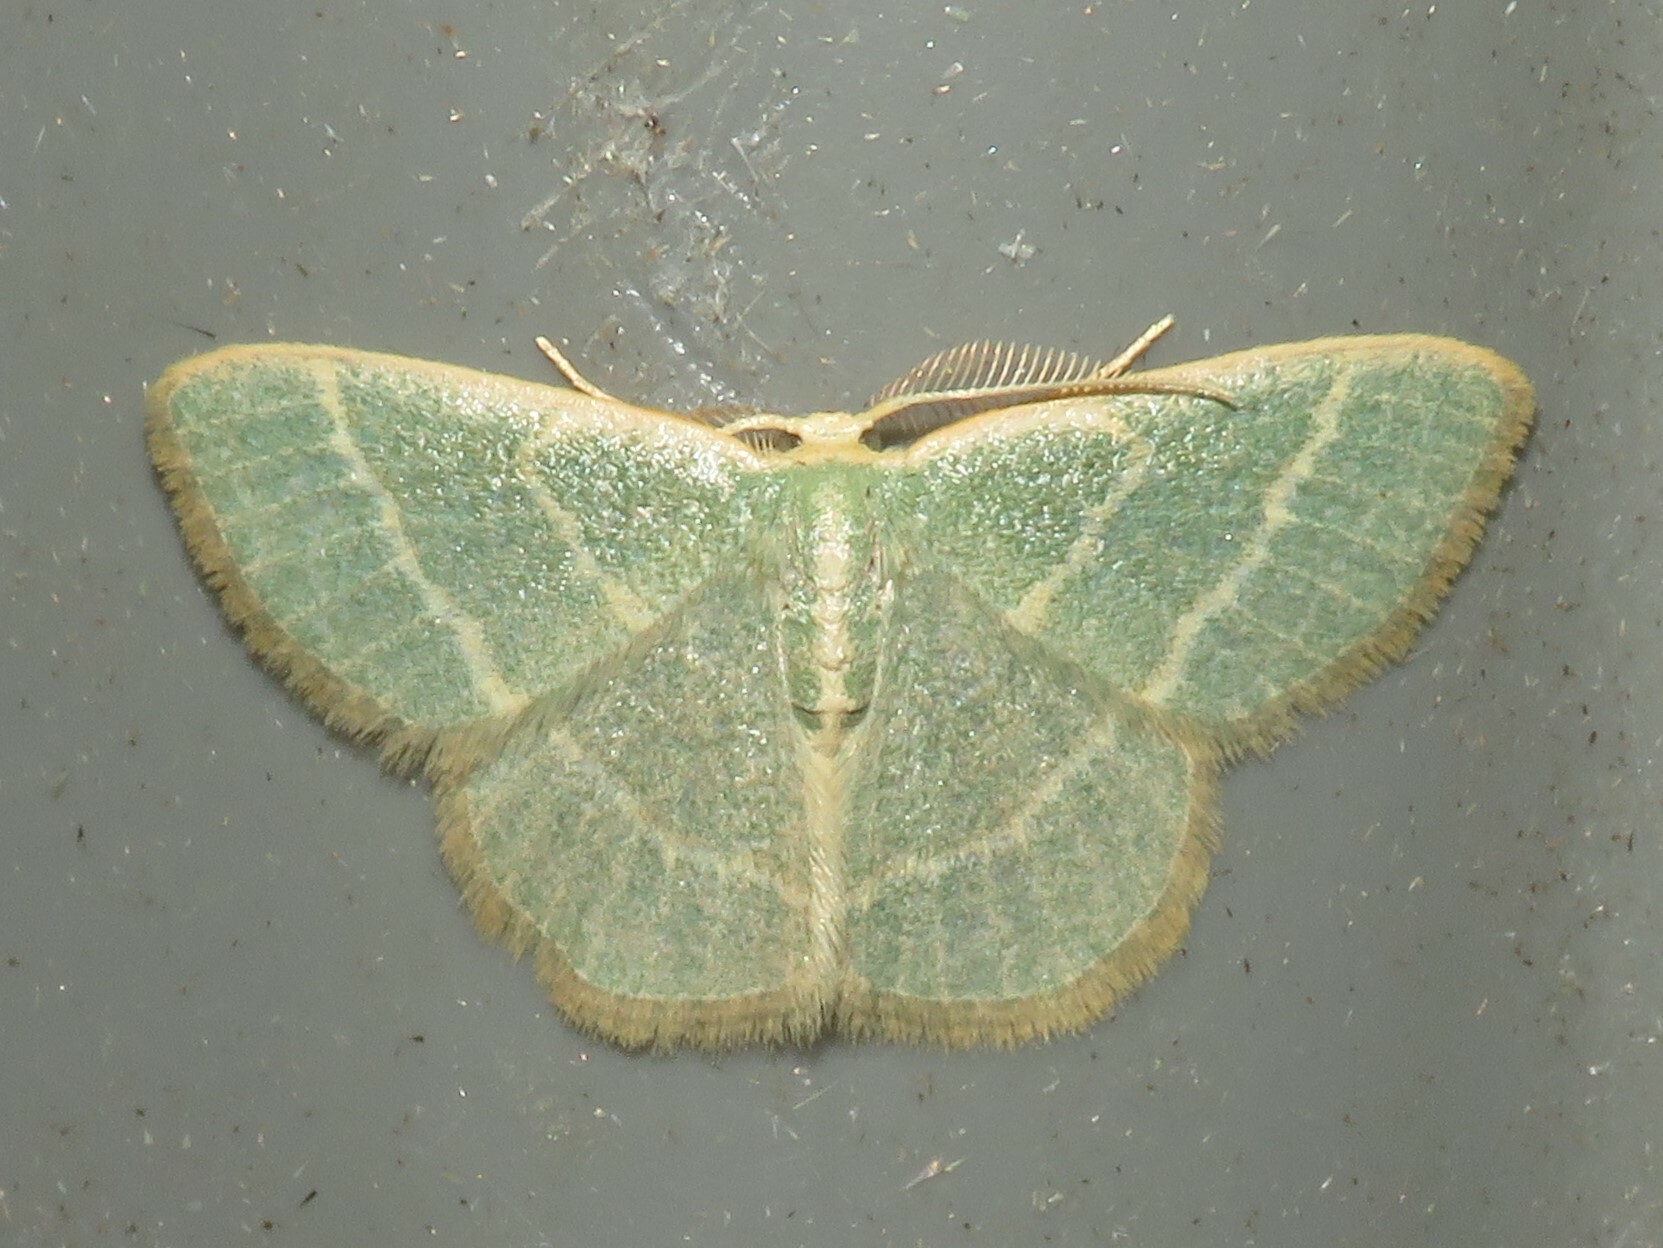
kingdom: Animalia
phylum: Arthropoda
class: Insecta
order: Lepidoptera
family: Geometridae
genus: Chlorochlamys
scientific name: Chlorochlamys chloroleucaria
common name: Blackberry looper
